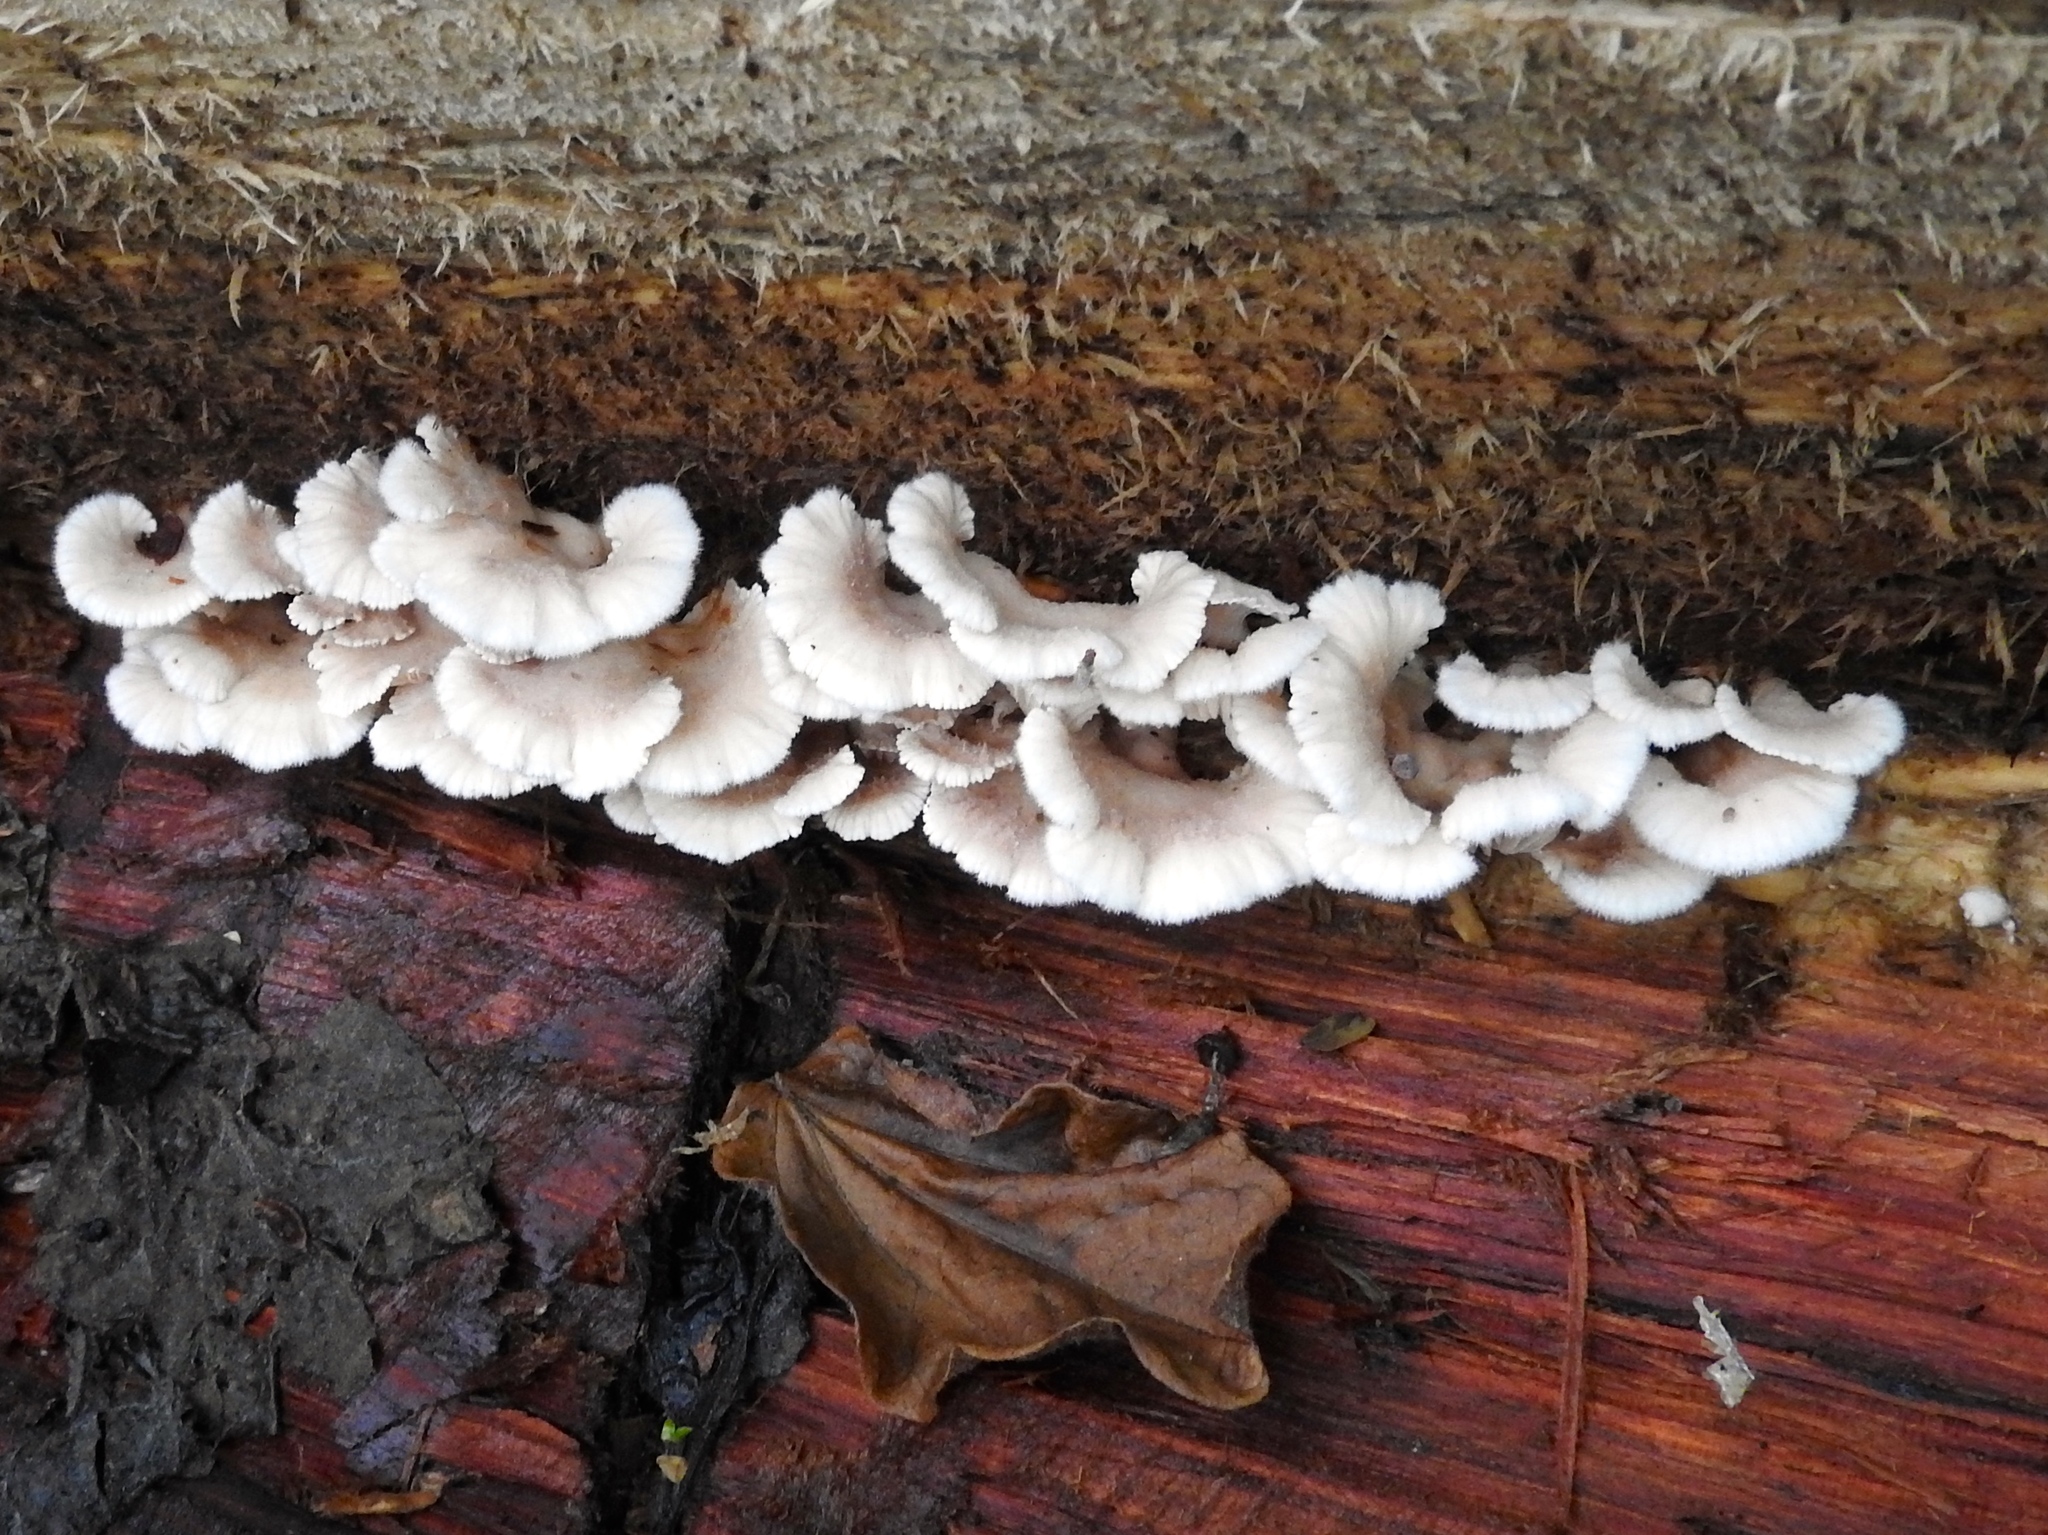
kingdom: Fungi
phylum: Basidiomycota
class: Agaricomycetes
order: Agaricales
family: Schizophyllaceae
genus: Schizophyllum
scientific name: Schizophyllum commune
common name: Common porecrust
